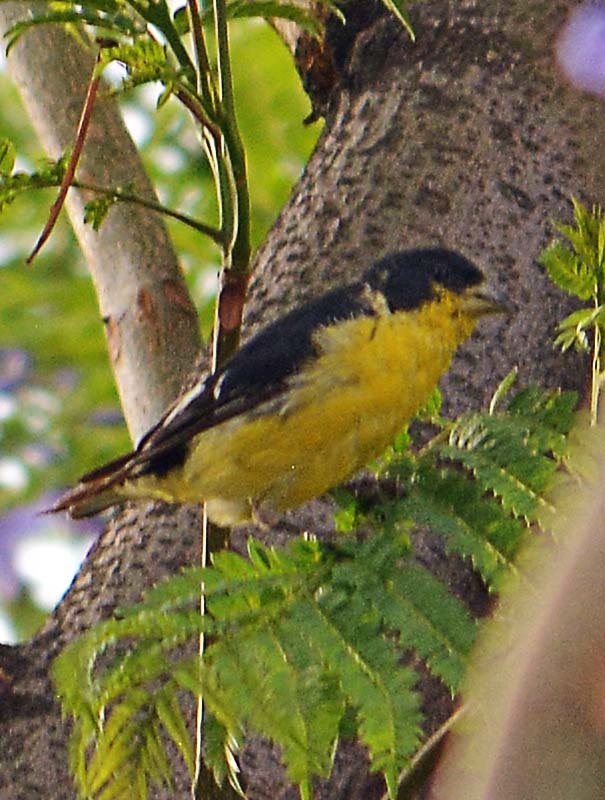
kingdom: Animalia
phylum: Chordata
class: Aves
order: Passeriformes
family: Fringillidae
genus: Spinus
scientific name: Spinus psaltria
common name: Lesser goldfinch
